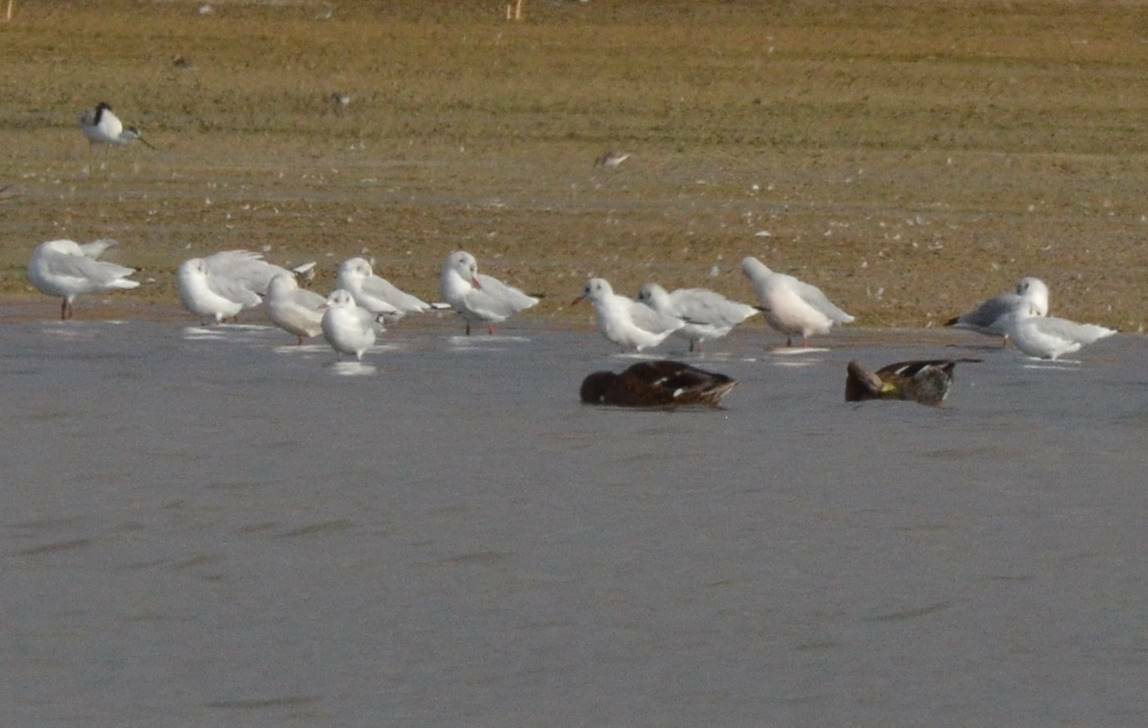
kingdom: Animalia
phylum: Chordata
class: Aves
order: Charadriiformes
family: Laridae
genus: Chroicocephalus
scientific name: Chroicocephalus ridibundus
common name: Black-headed gull
